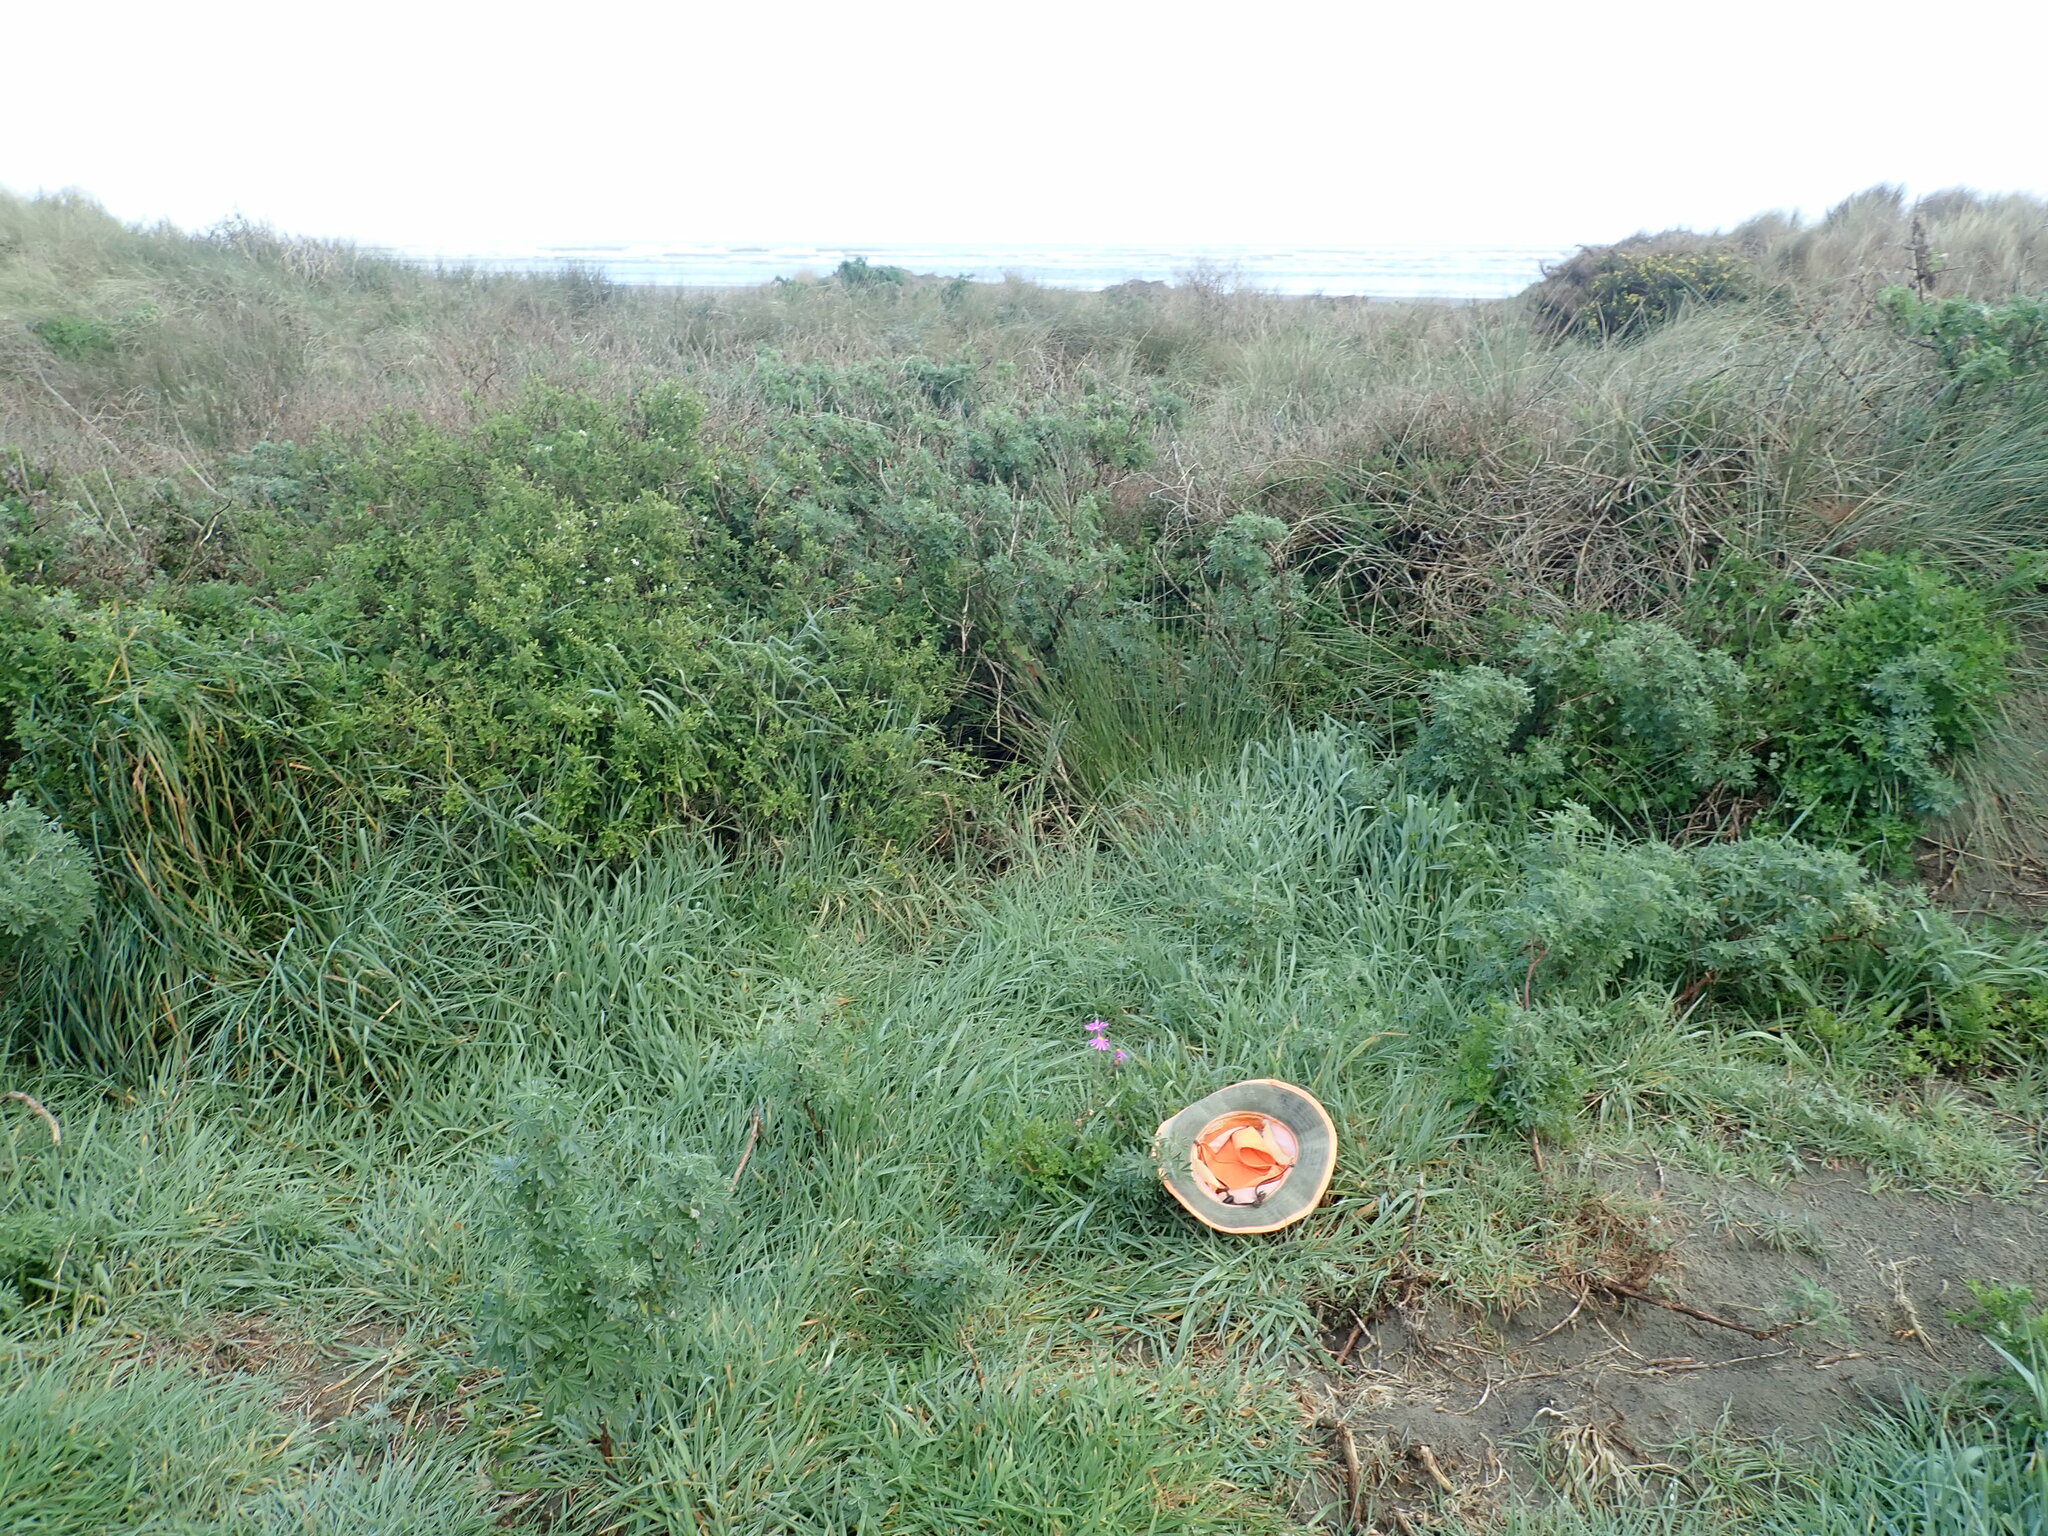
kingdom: Plantae
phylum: Tracheophyta
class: Magnoliopsida
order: Asterales
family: Asteraceae
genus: Senecio
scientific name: Senecio elegans
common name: Purple groundsel
